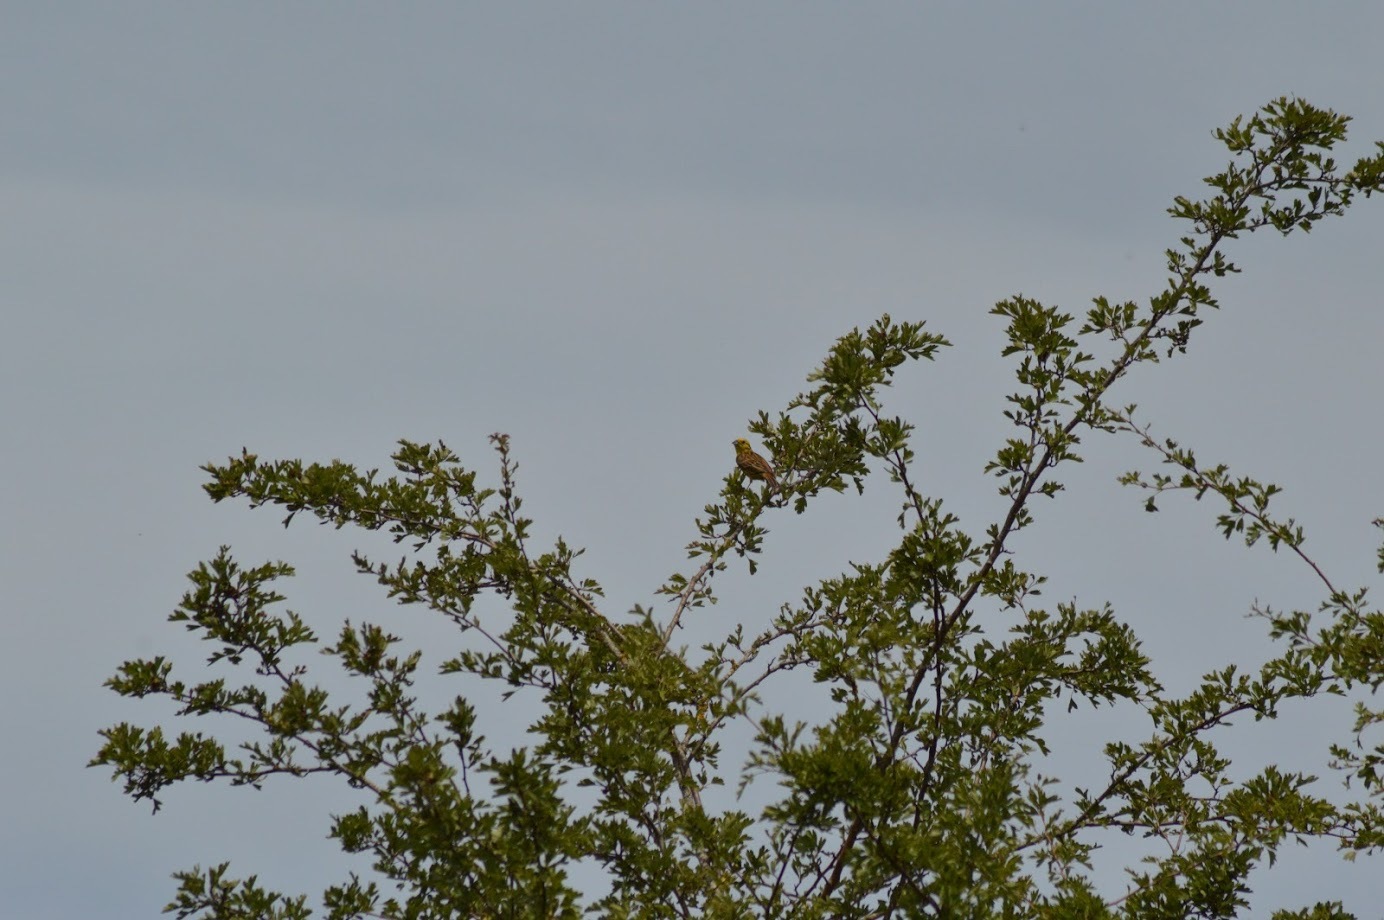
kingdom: Animalia
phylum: Chordata
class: Aves
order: Passeriformes
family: Emberizidae
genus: Emberiza
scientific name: Emberiza citrinella
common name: Yellowhammer
